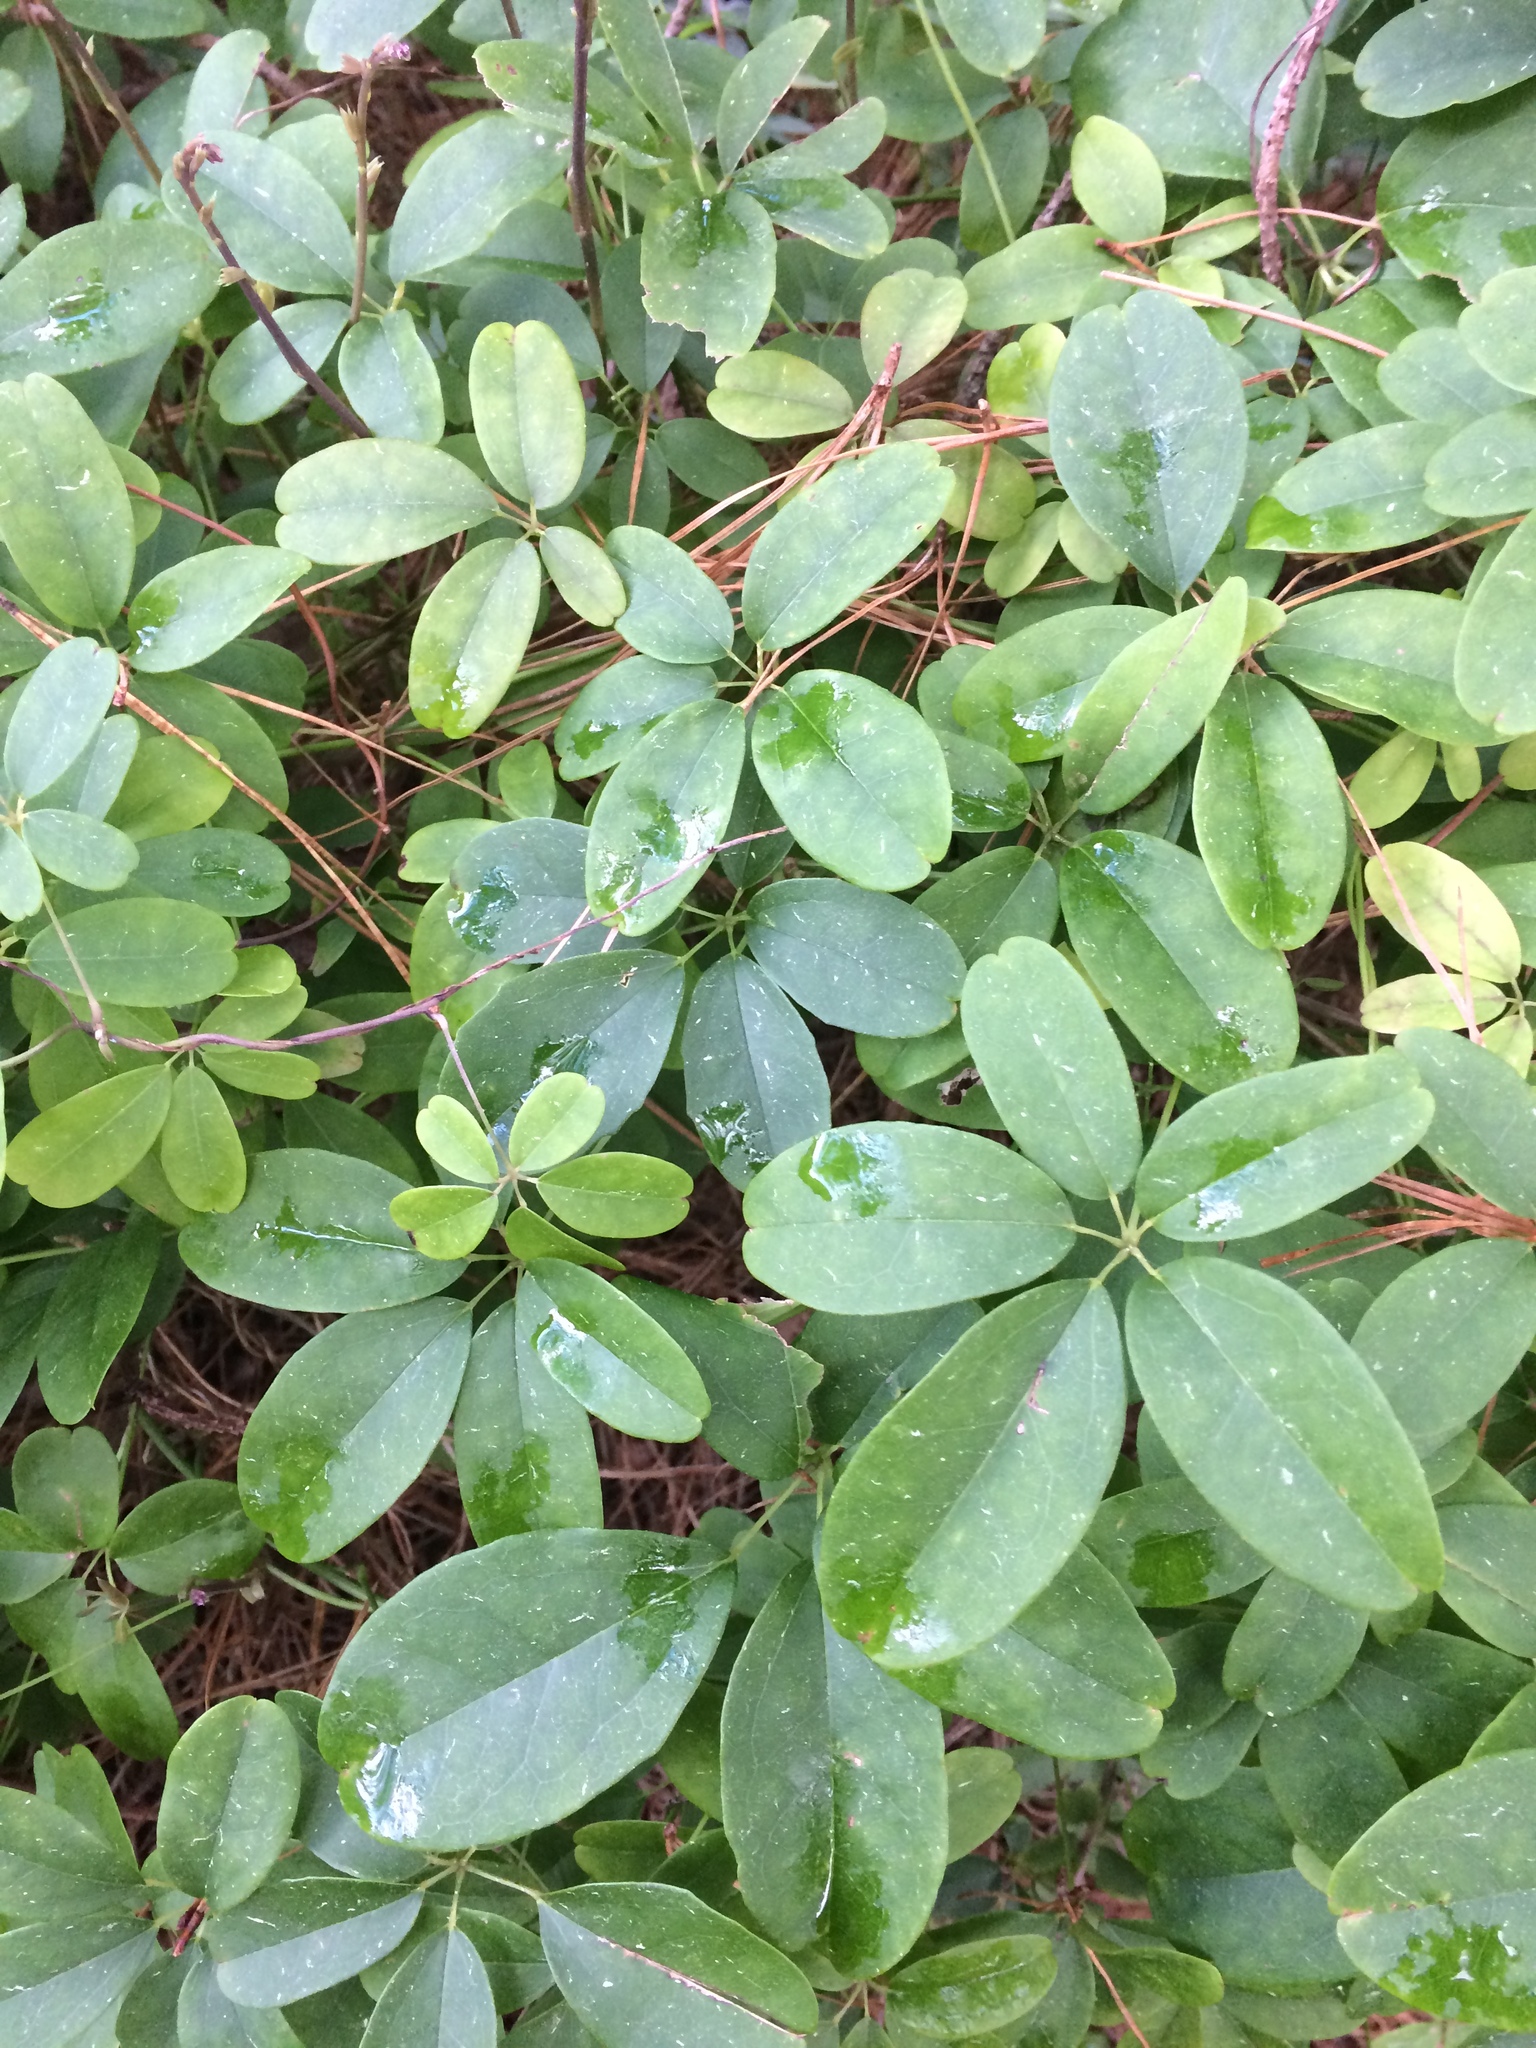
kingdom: Plantae
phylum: Tracheophyta
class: Magnoliopsida
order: Ranunculales
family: Lardizabalaceae
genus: Akebia
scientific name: Akebia quinata
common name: Five-leaf akebia
